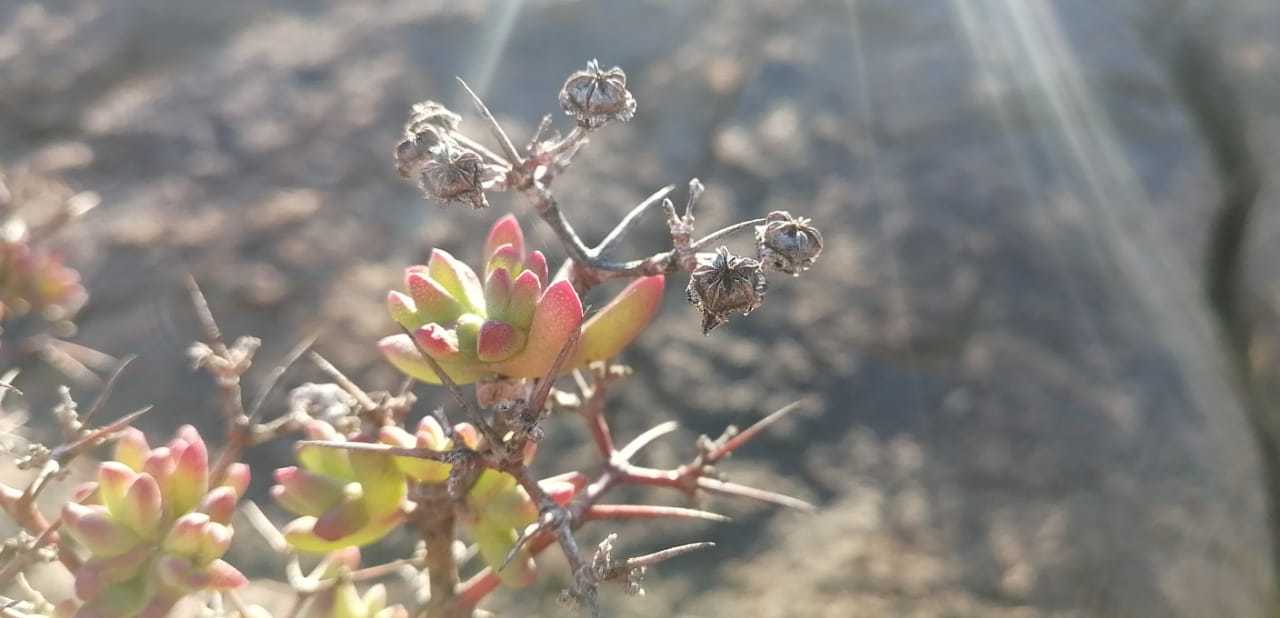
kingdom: Plantae
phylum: Tracheophyta
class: Magnoliopsida
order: Caryophyllales
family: Aizoaceae
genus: Ruschia
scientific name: Ruschia intricata
